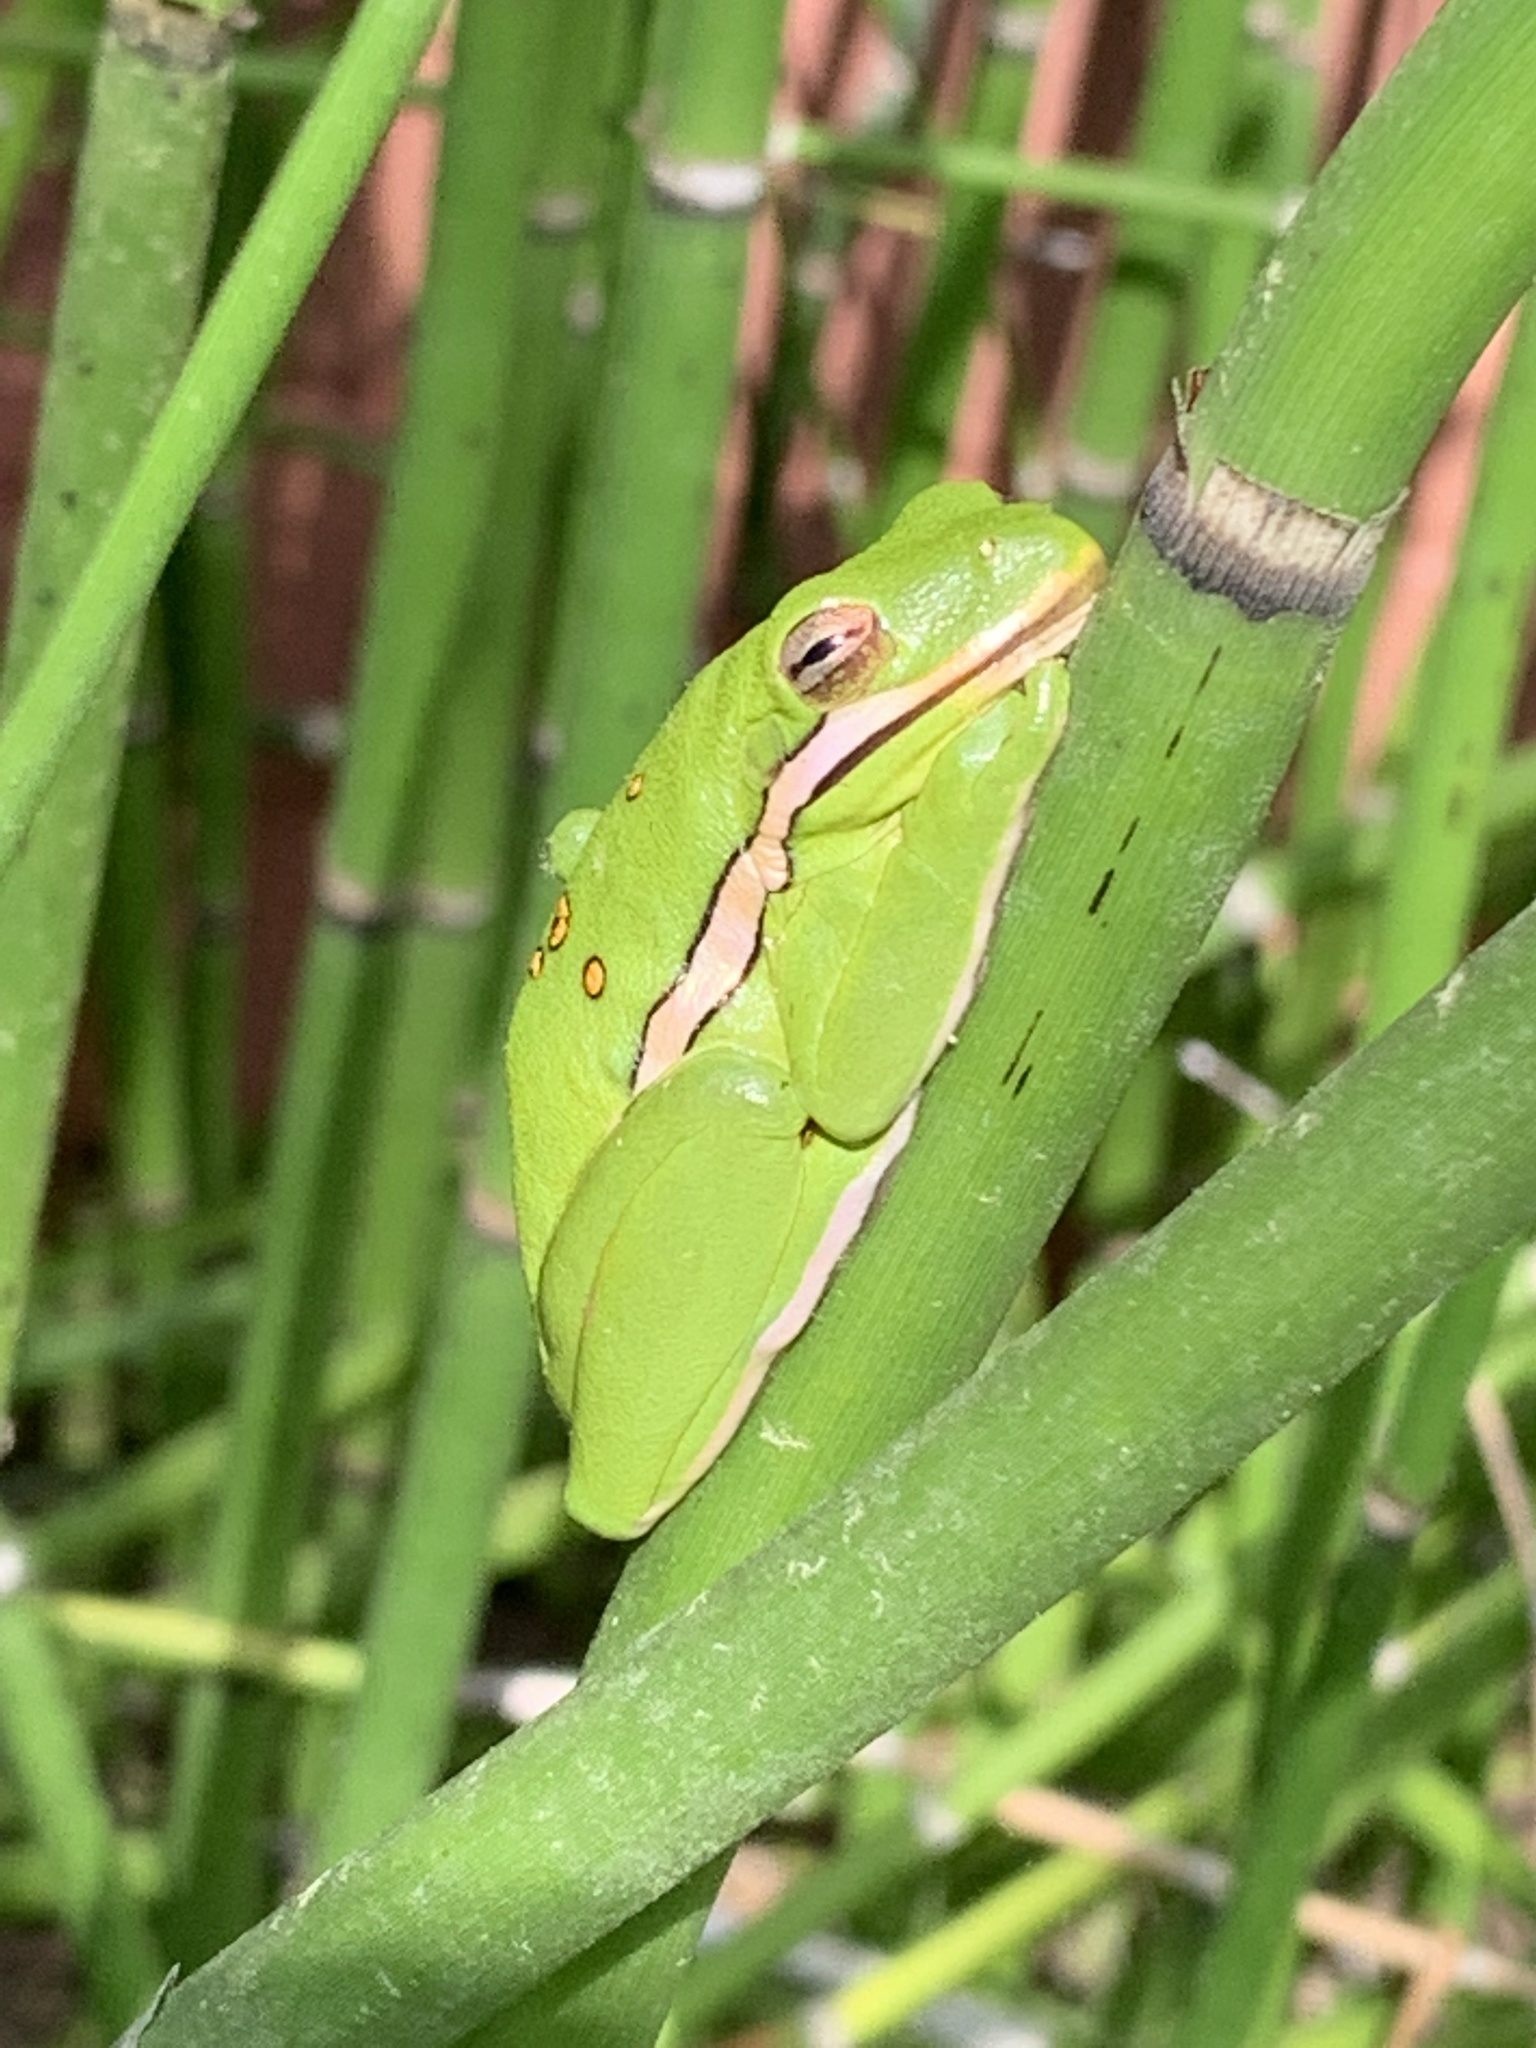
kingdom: Animalia
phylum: Chordata
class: Amphibia
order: Anura
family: Hylidae
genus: Dryophytes
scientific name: Dryophytes cinereus
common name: Green treefrog
